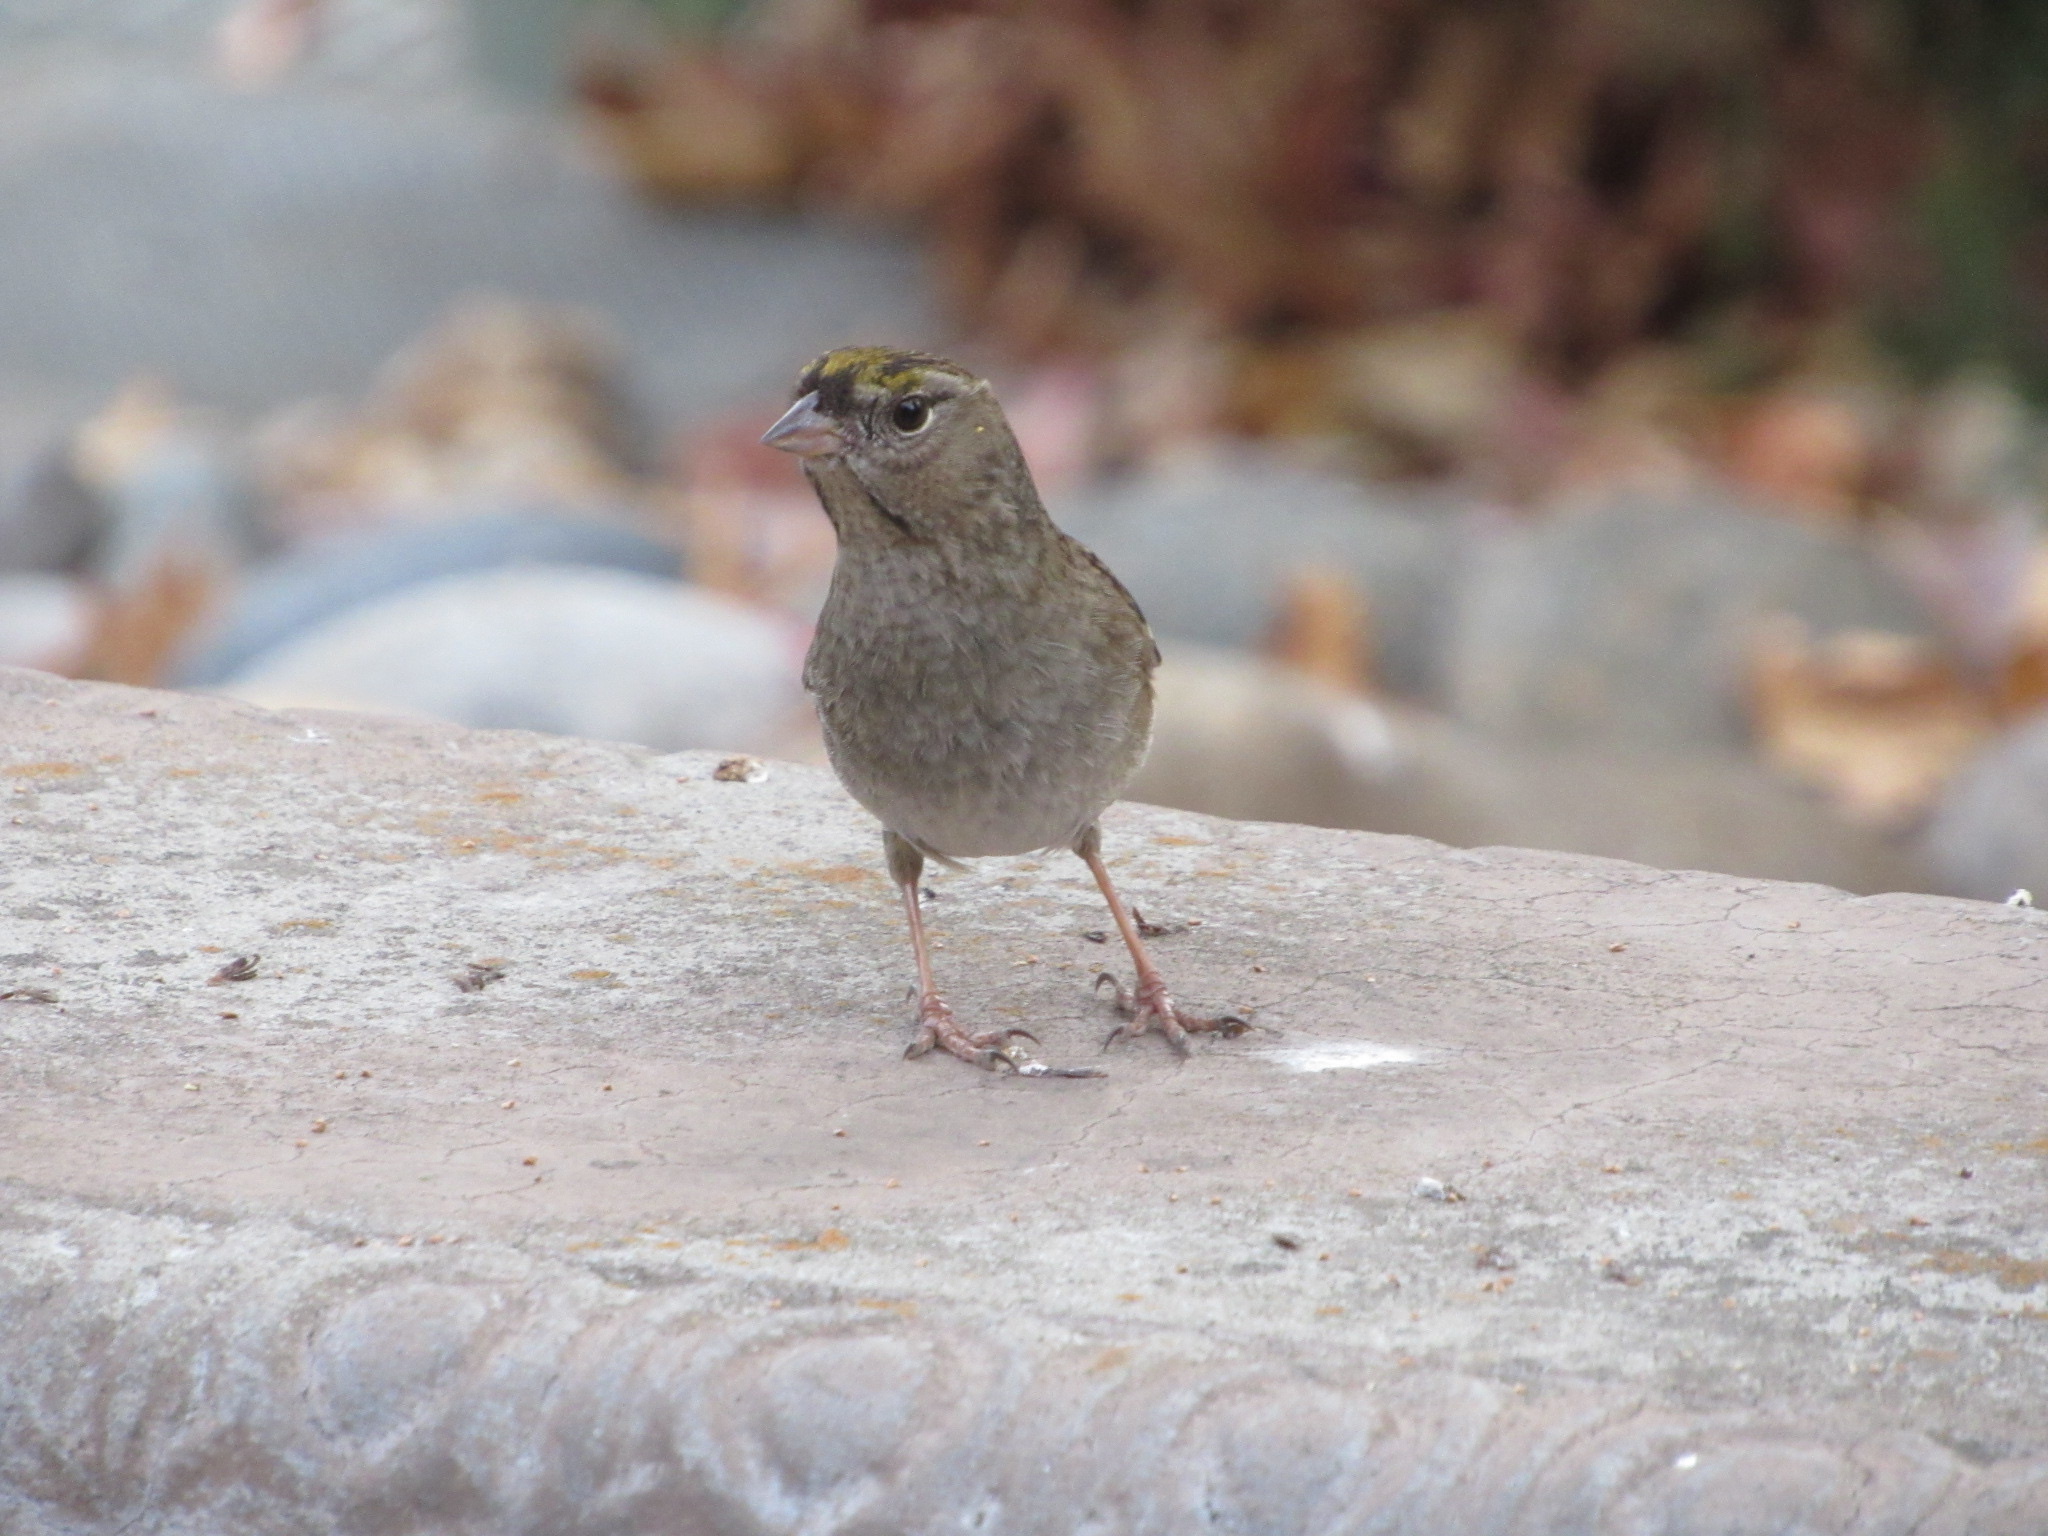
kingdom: Animalia
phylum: Chordata
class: Aves
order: Passeriformes
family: Passerellidae
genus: Zonotrichia
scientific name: Zonotrichia atricapilla
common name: Golden-crowned sparrow
